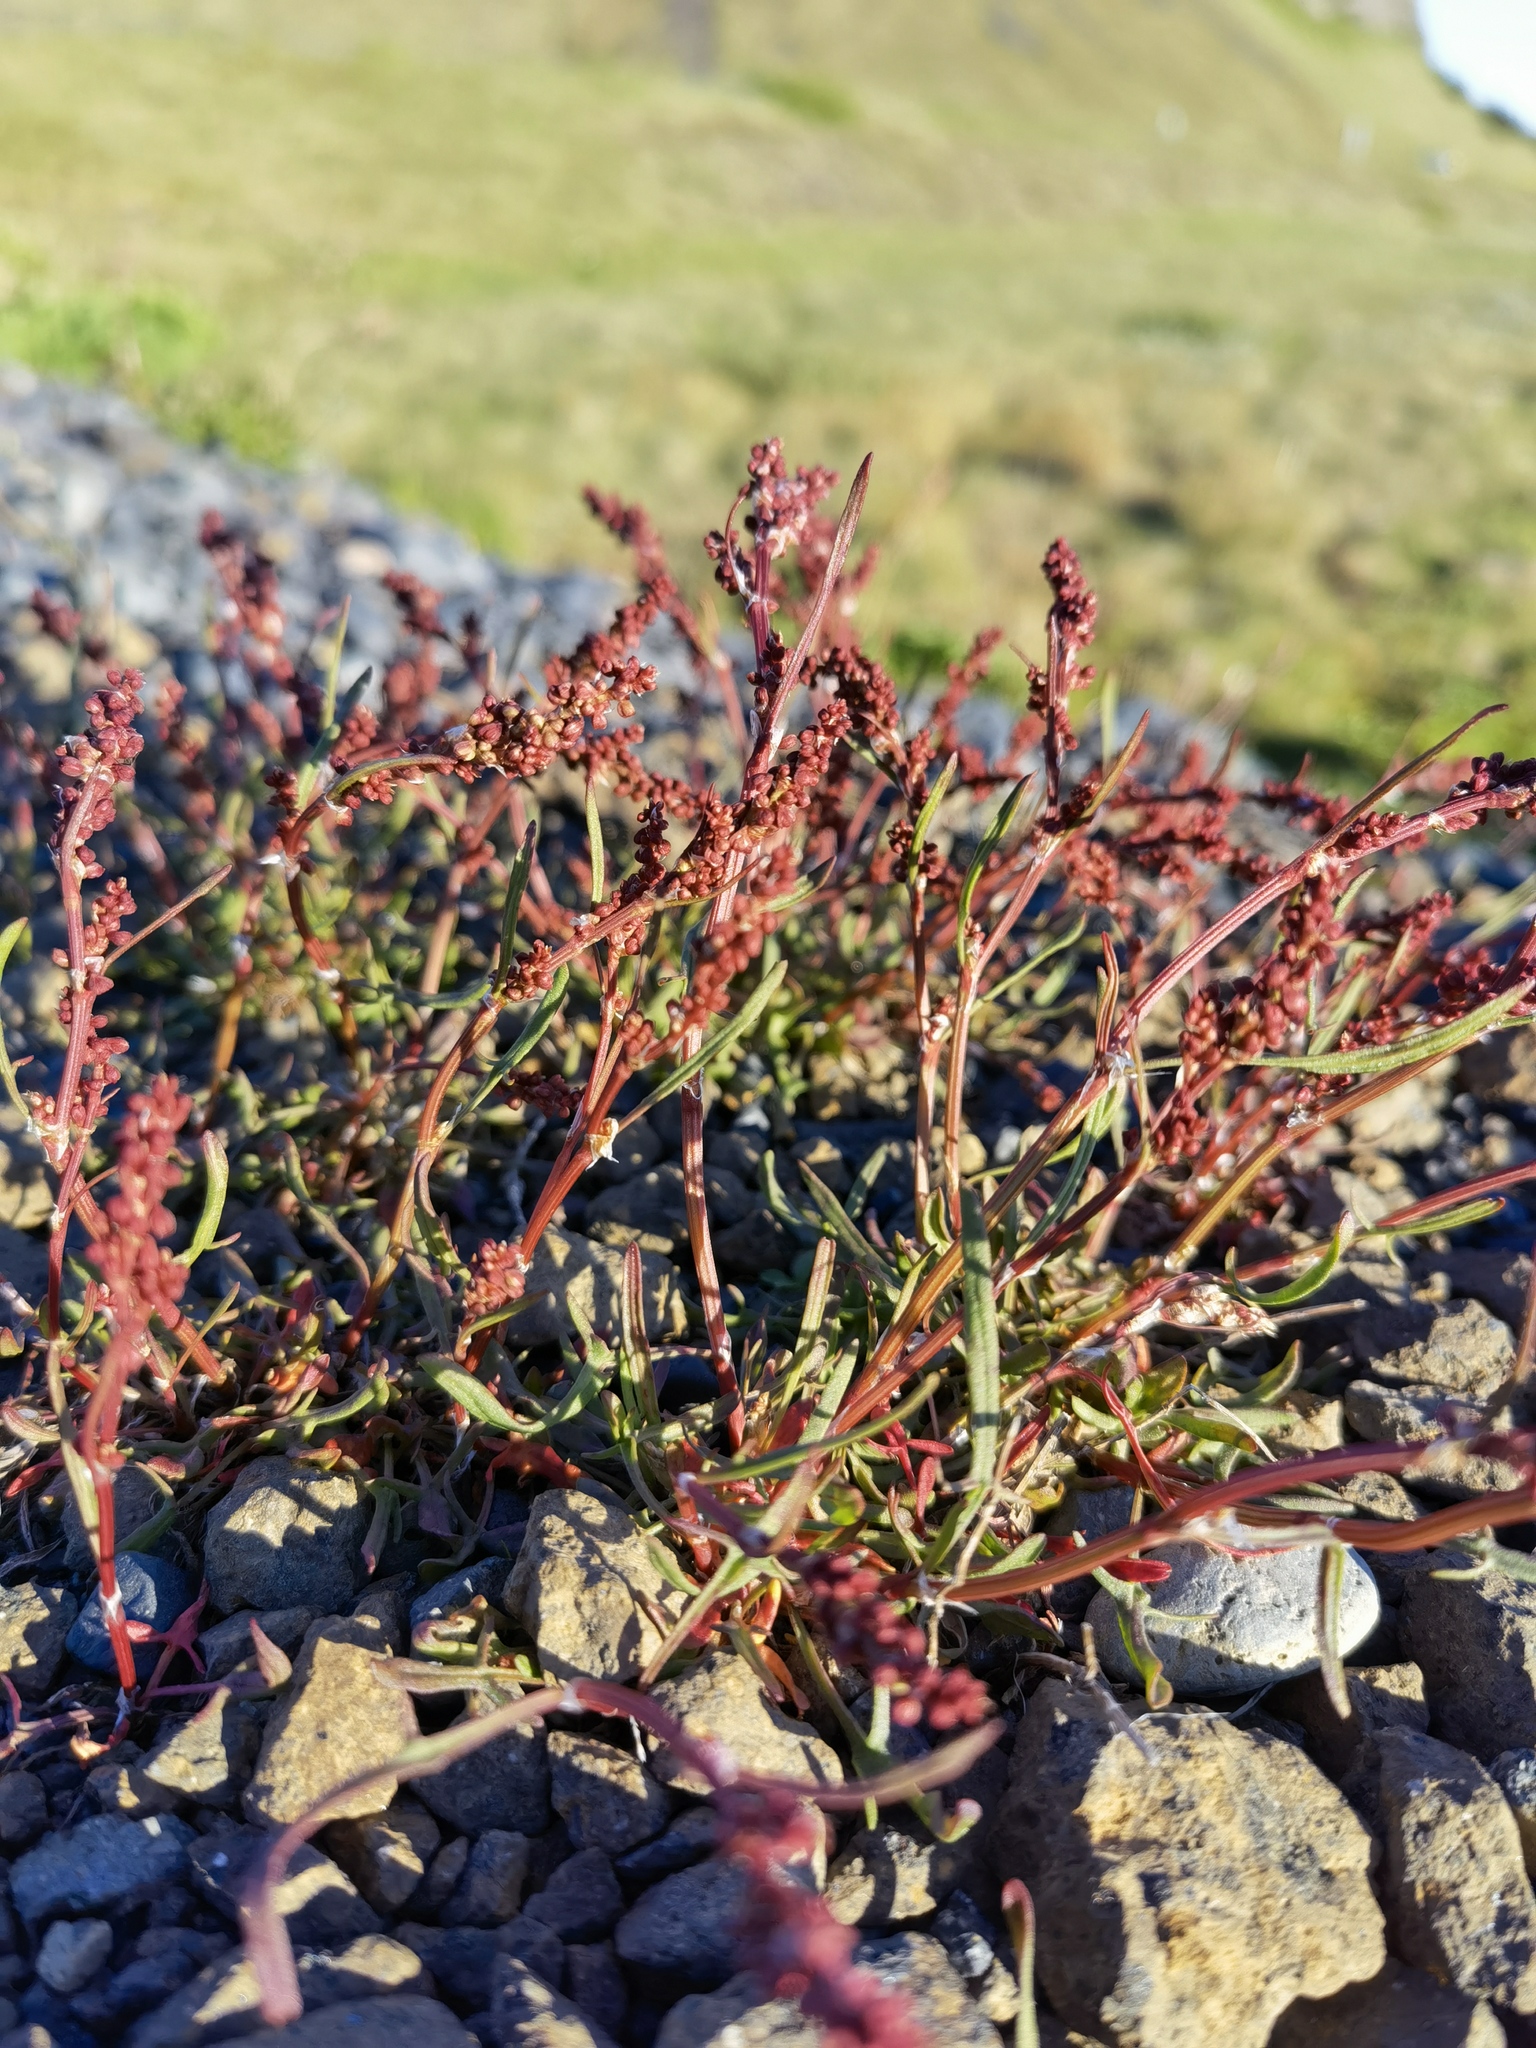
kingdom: Plantae
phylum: Tracheophyta
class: Magnoliopsida
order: Caryophyllales
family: Polygonaceae
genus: Rumex
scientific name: Rumex acetosella
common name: Common sheep sorrel
